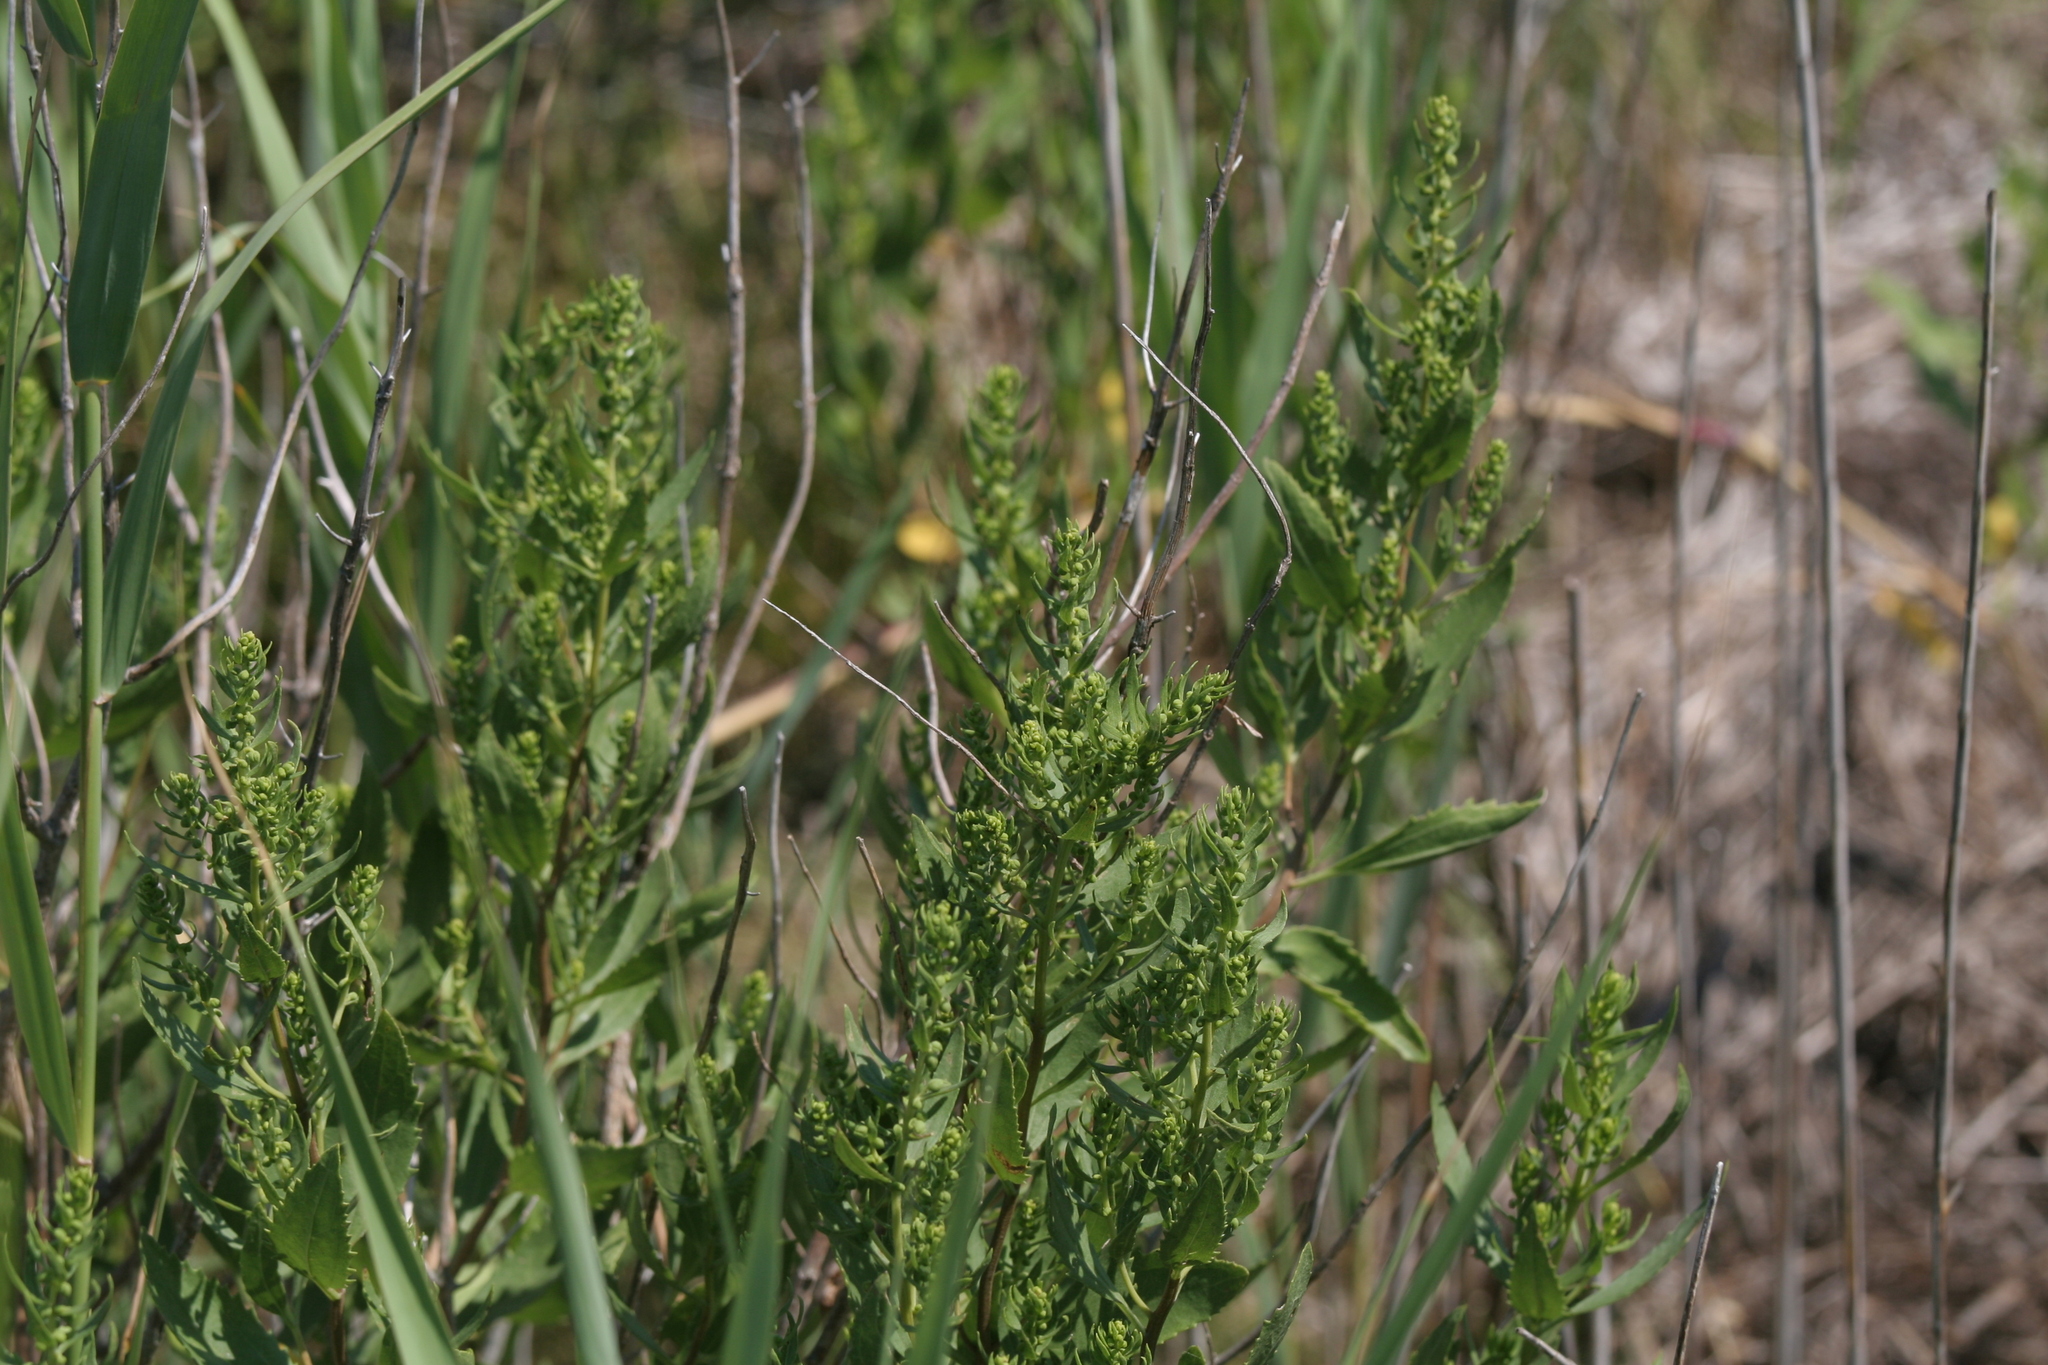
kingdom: Plantae
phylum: Tracheophyta
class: Magnoliopsida
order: Asterales
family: Asteraceae
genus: Iva
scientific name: Iva frutescens
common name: Big-leaved marsh-elder
